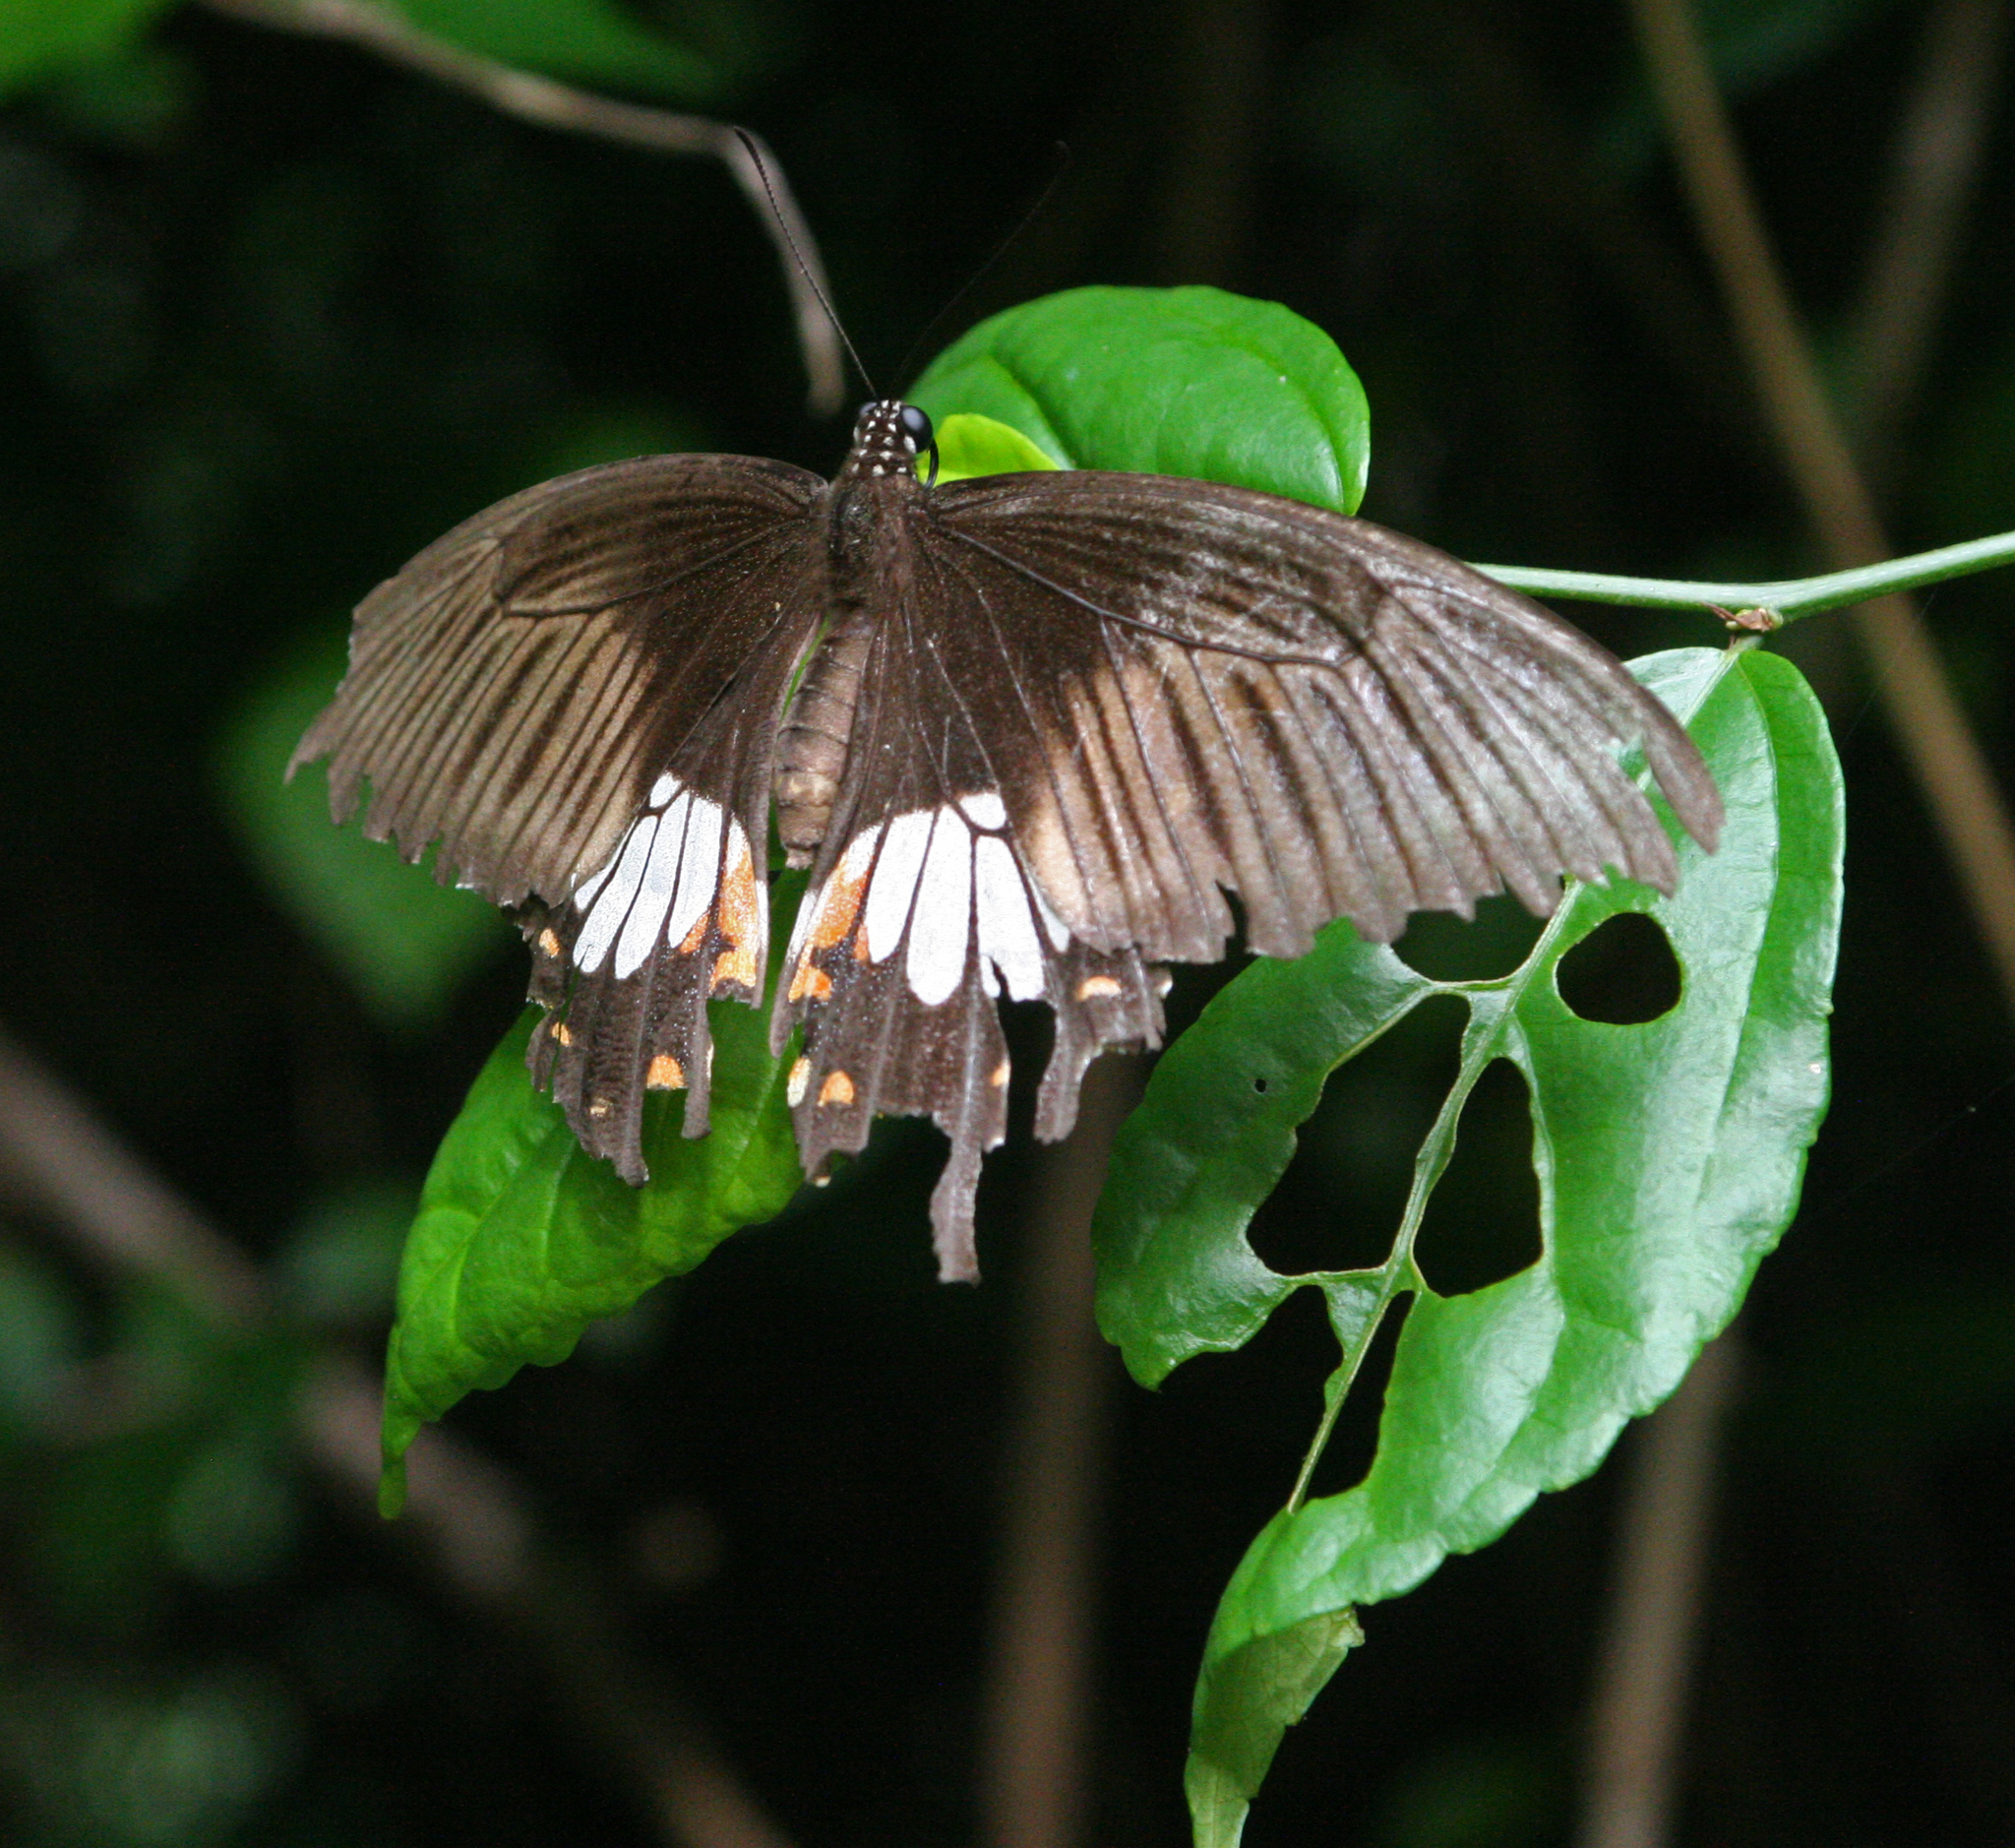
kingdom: Animalia
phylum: Arthropoda
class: Insecta
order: Lepidoptera
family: Papilionidae
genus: Papilio
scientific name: Papilio polytes
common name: Common mormon
